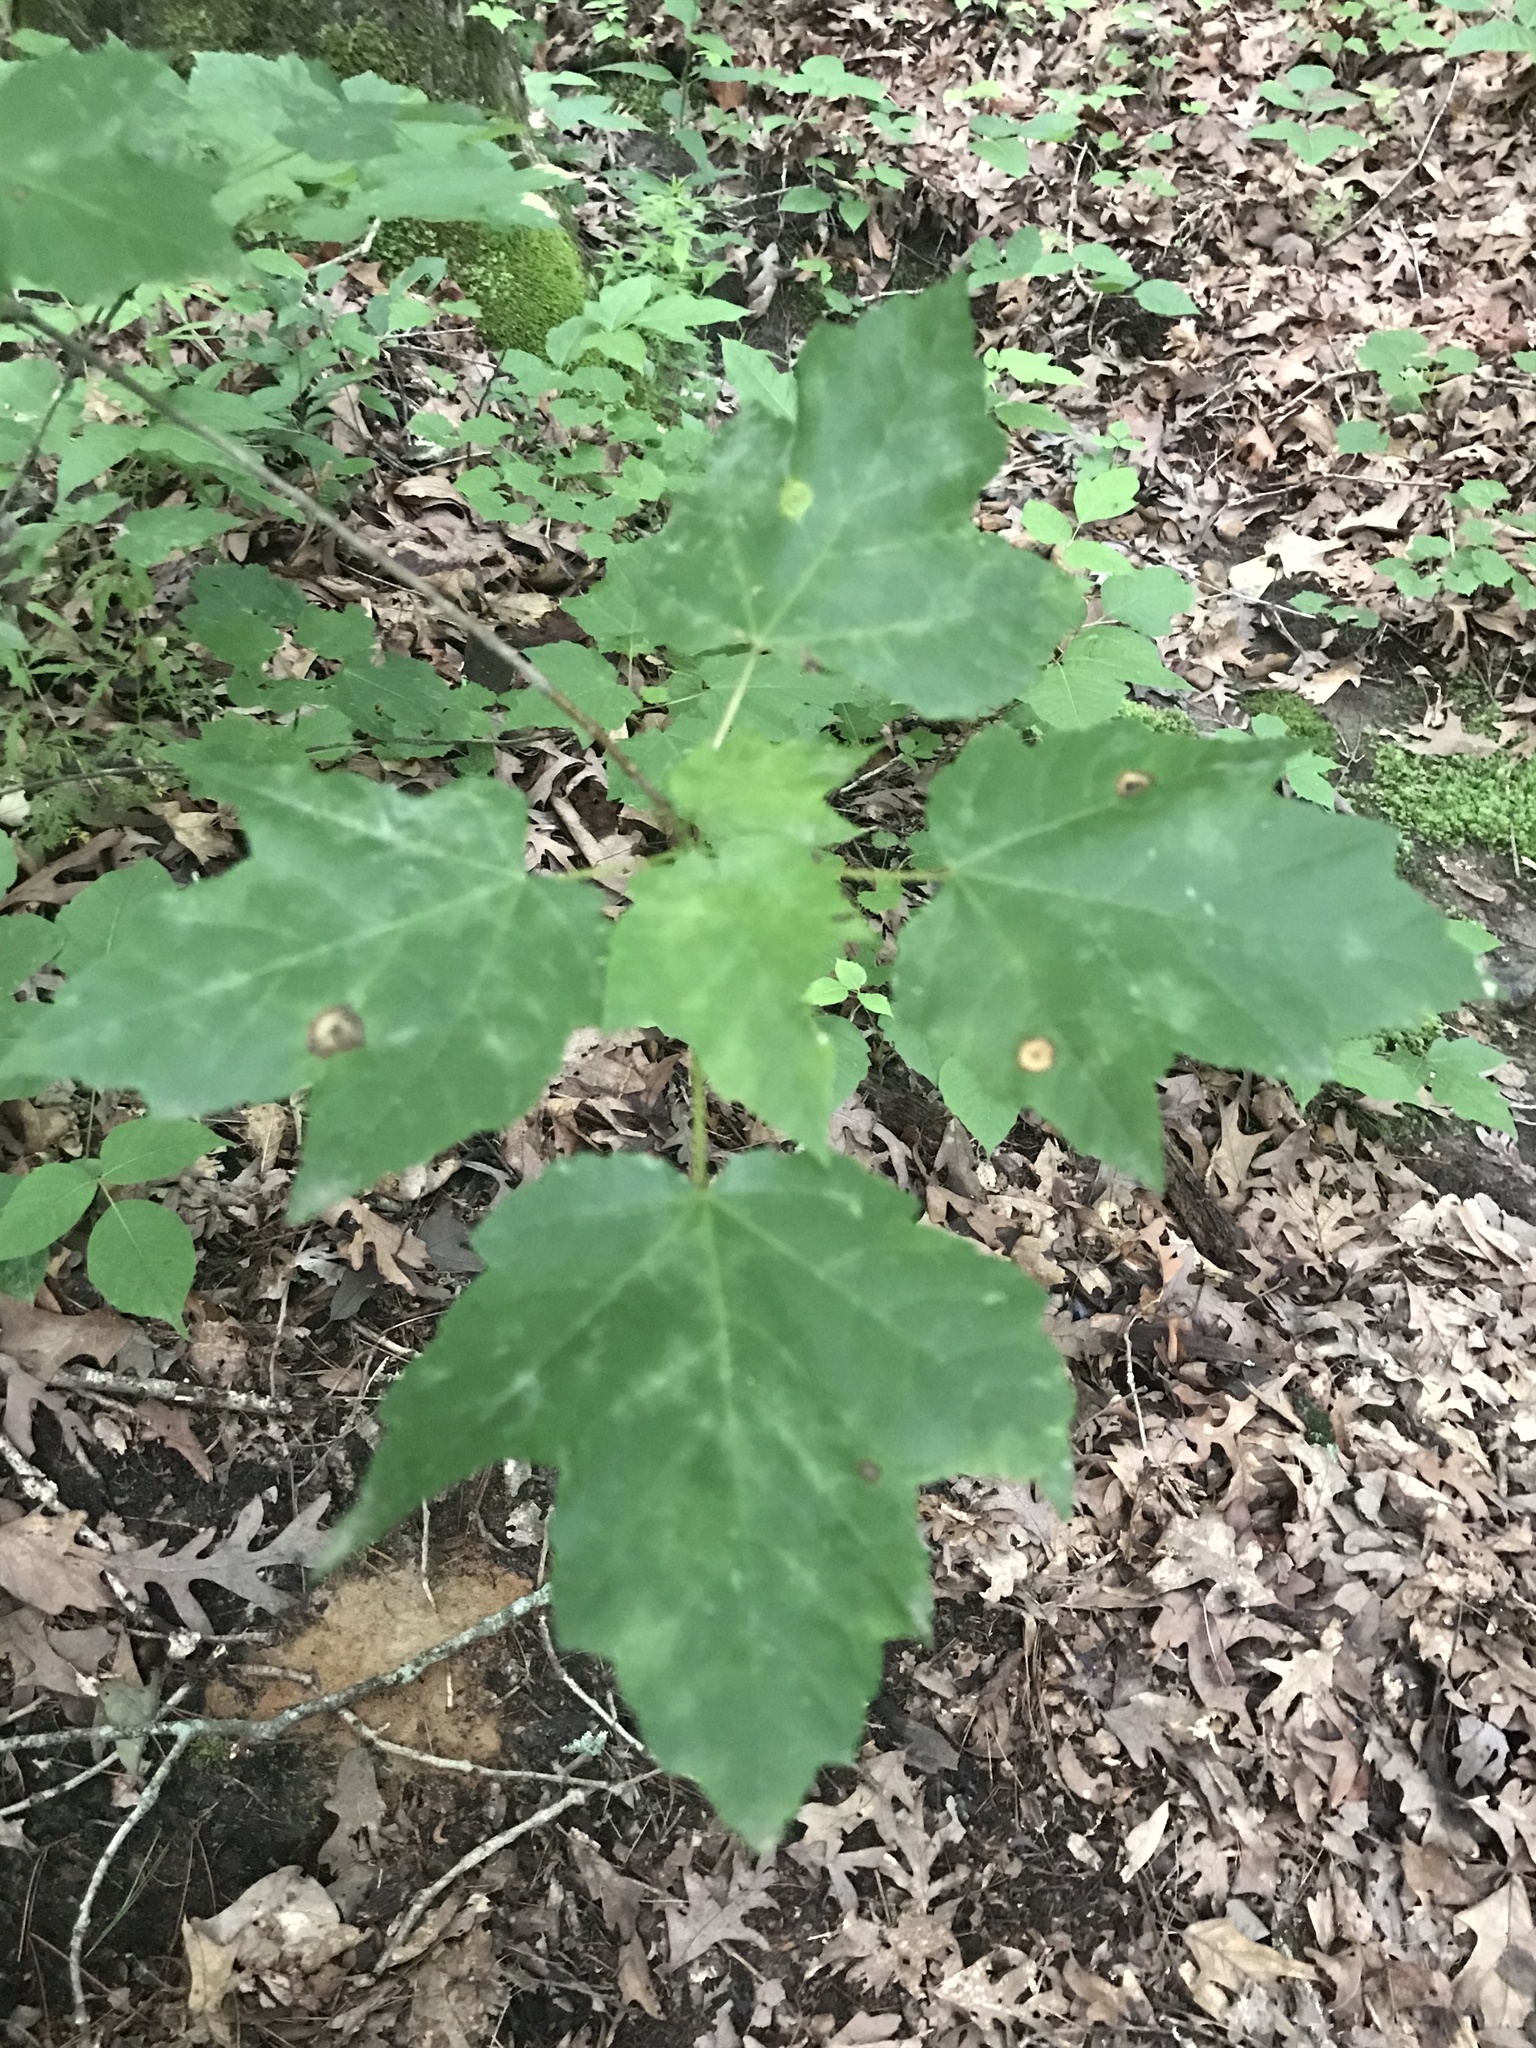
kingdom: Plantae
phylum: Tracheophyta
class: Magnoliopsida
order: Sapindales
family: Sapindaceae
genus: Acer
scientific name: Acer rubrum
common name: Red maple
